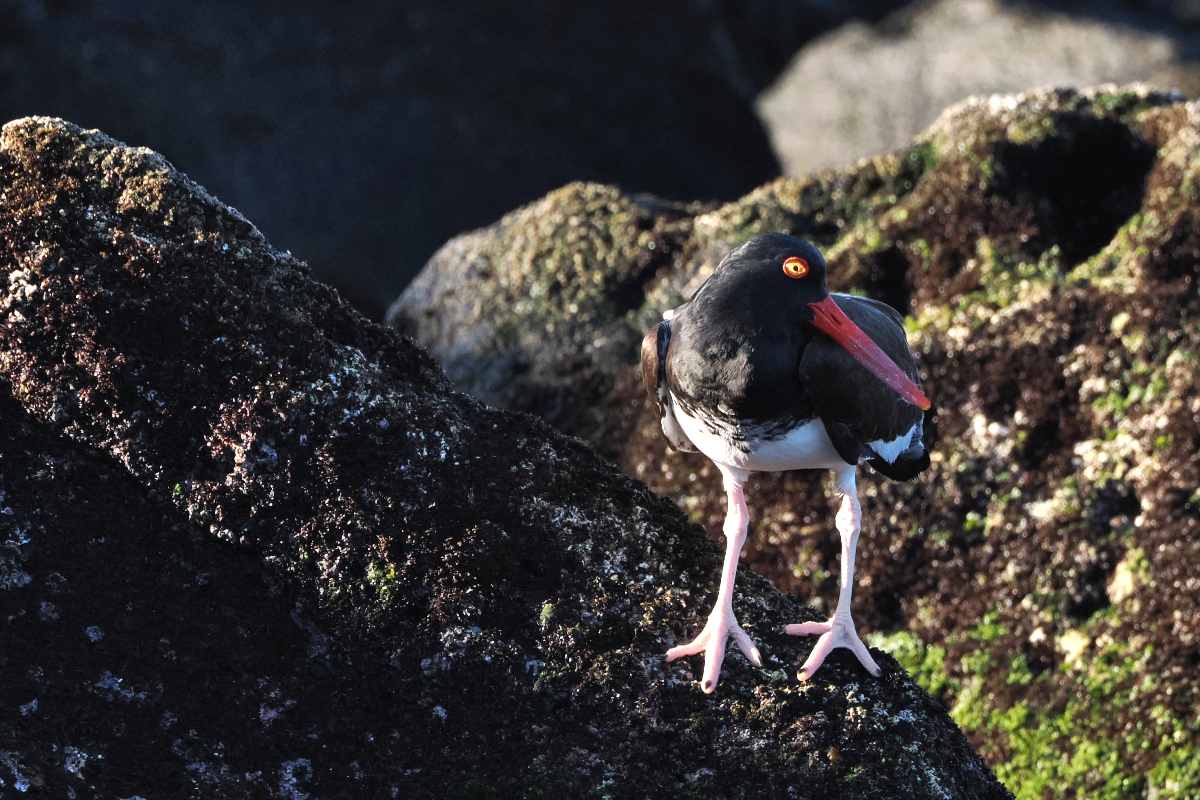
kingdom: Animalia
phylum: Chordata
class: Aves
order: Charadriiformes
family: Haematopodidae
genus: Haematopus
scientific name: Haematopus palliatus
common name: American oystercatcher
